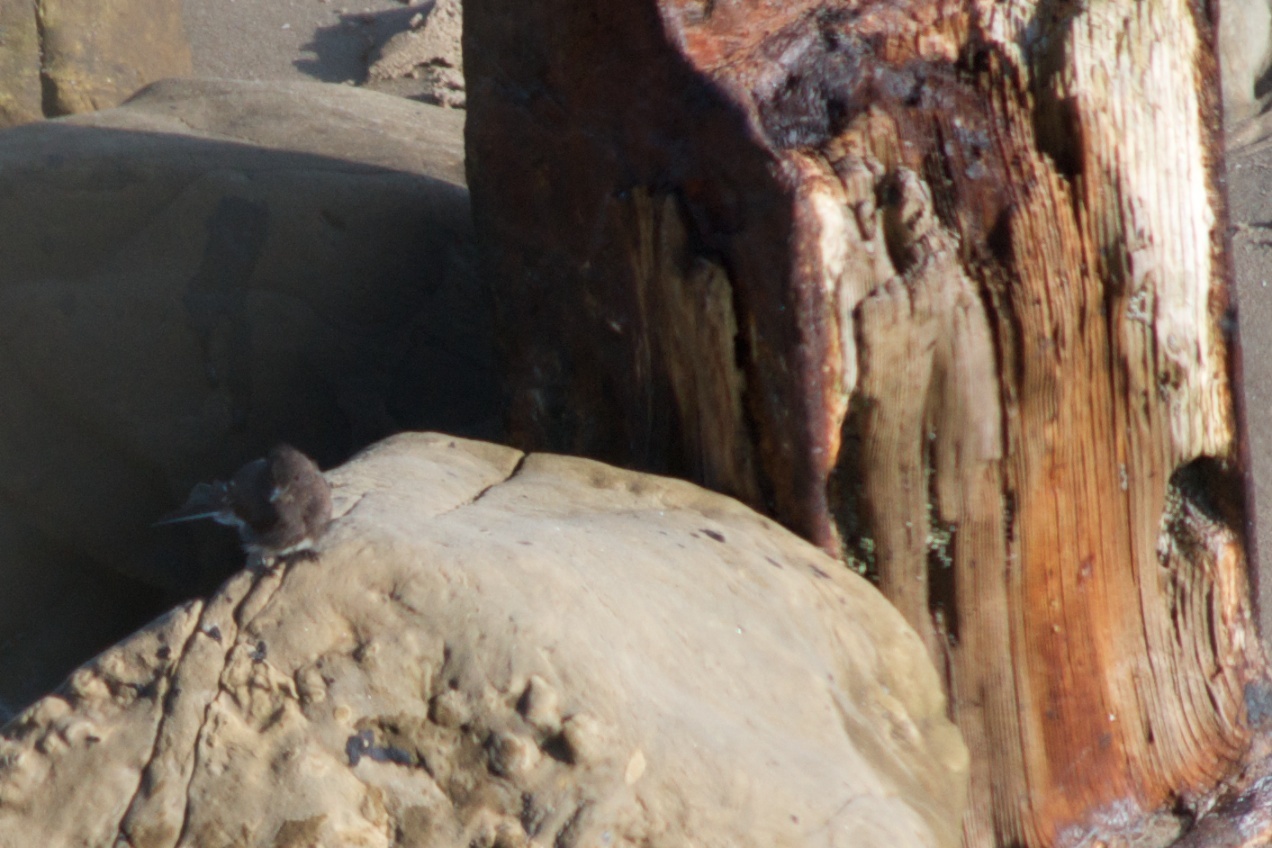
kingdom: Animalia
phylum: Chordata
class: Aves
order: Passeriformes
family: Tyrannidae
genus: Sayornis
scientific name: Sayornis nigricans
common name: Black phoebe
